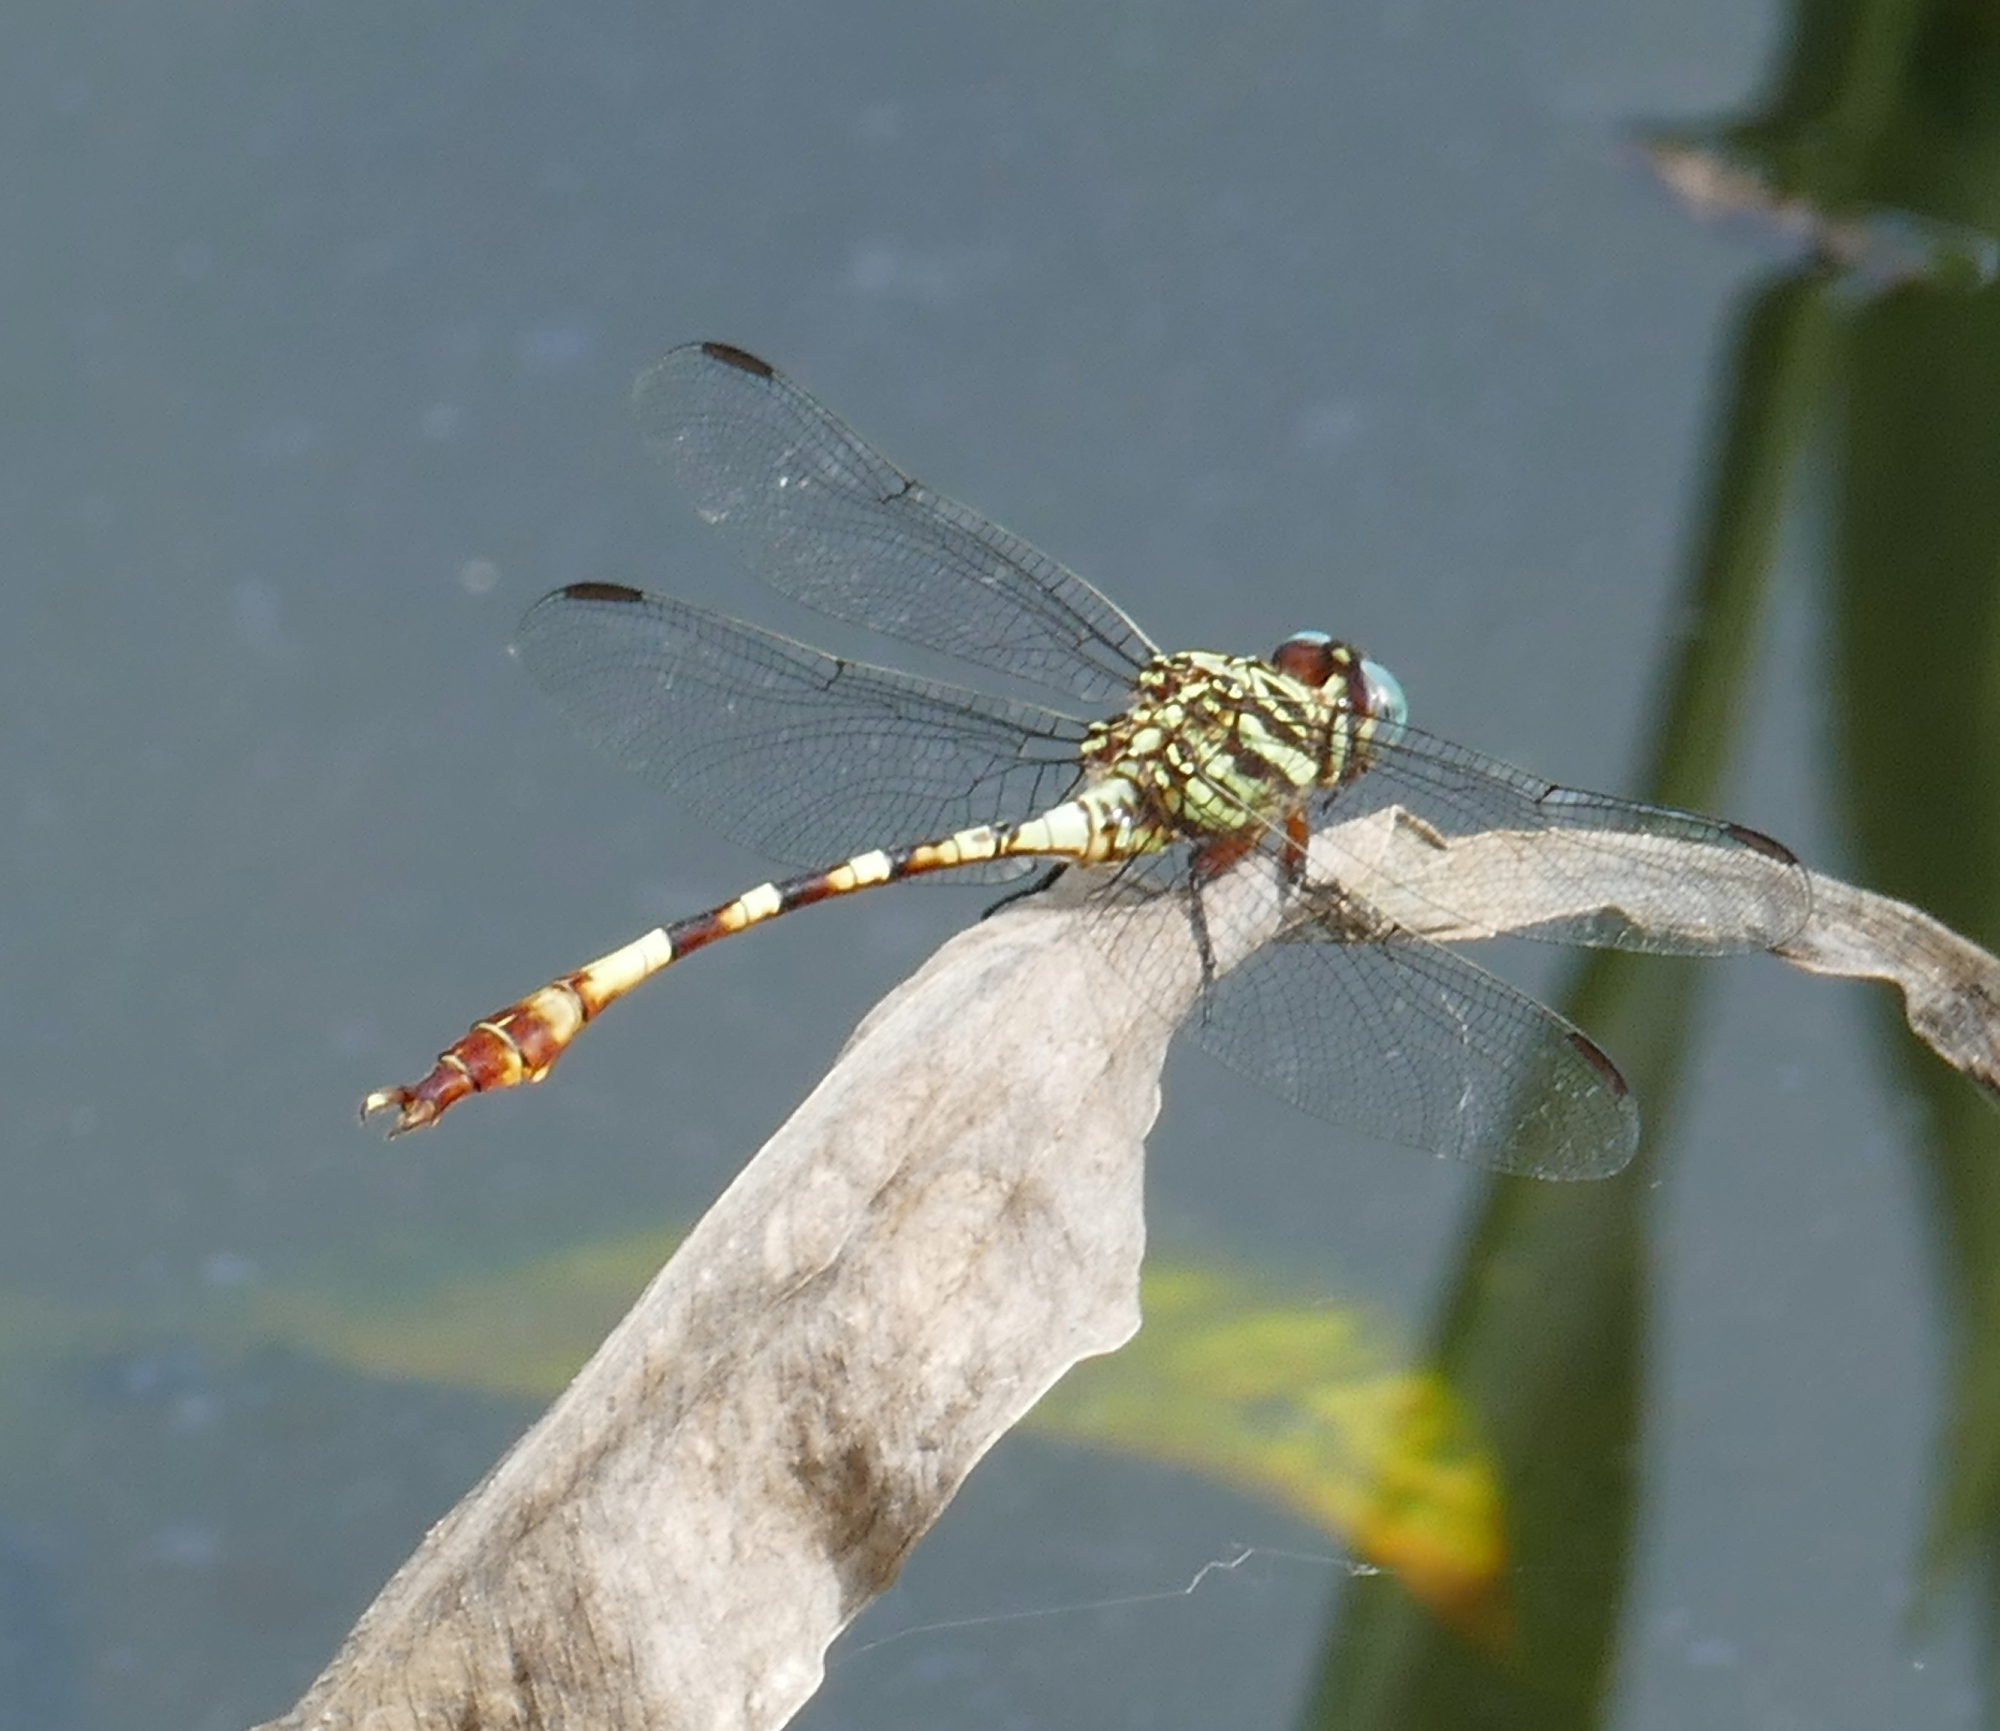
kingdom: Animalia
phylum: Arthropoda
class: Insecta
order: Odonata
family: Gomphidae
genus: Aphylla
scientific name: Aphylla angustifolia
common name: Broad-striped forceptail
